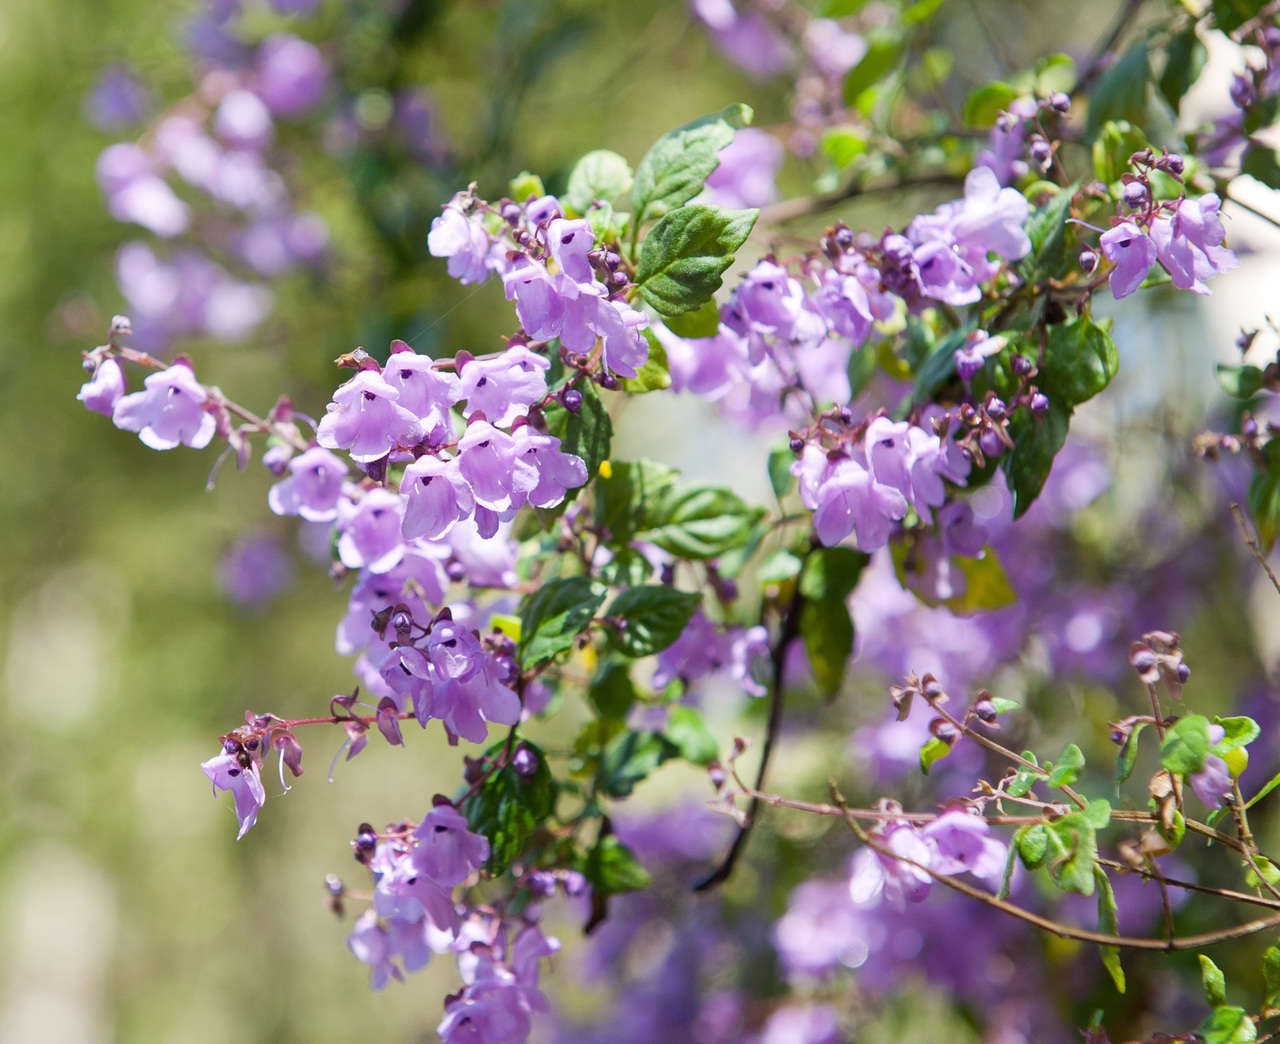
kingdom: Plantae
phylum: Tracheophyta
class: Magnoliopsida
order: Lamiales
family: Lamiaceae
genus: Prostanthera
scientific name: Prostanthera melissifolia
